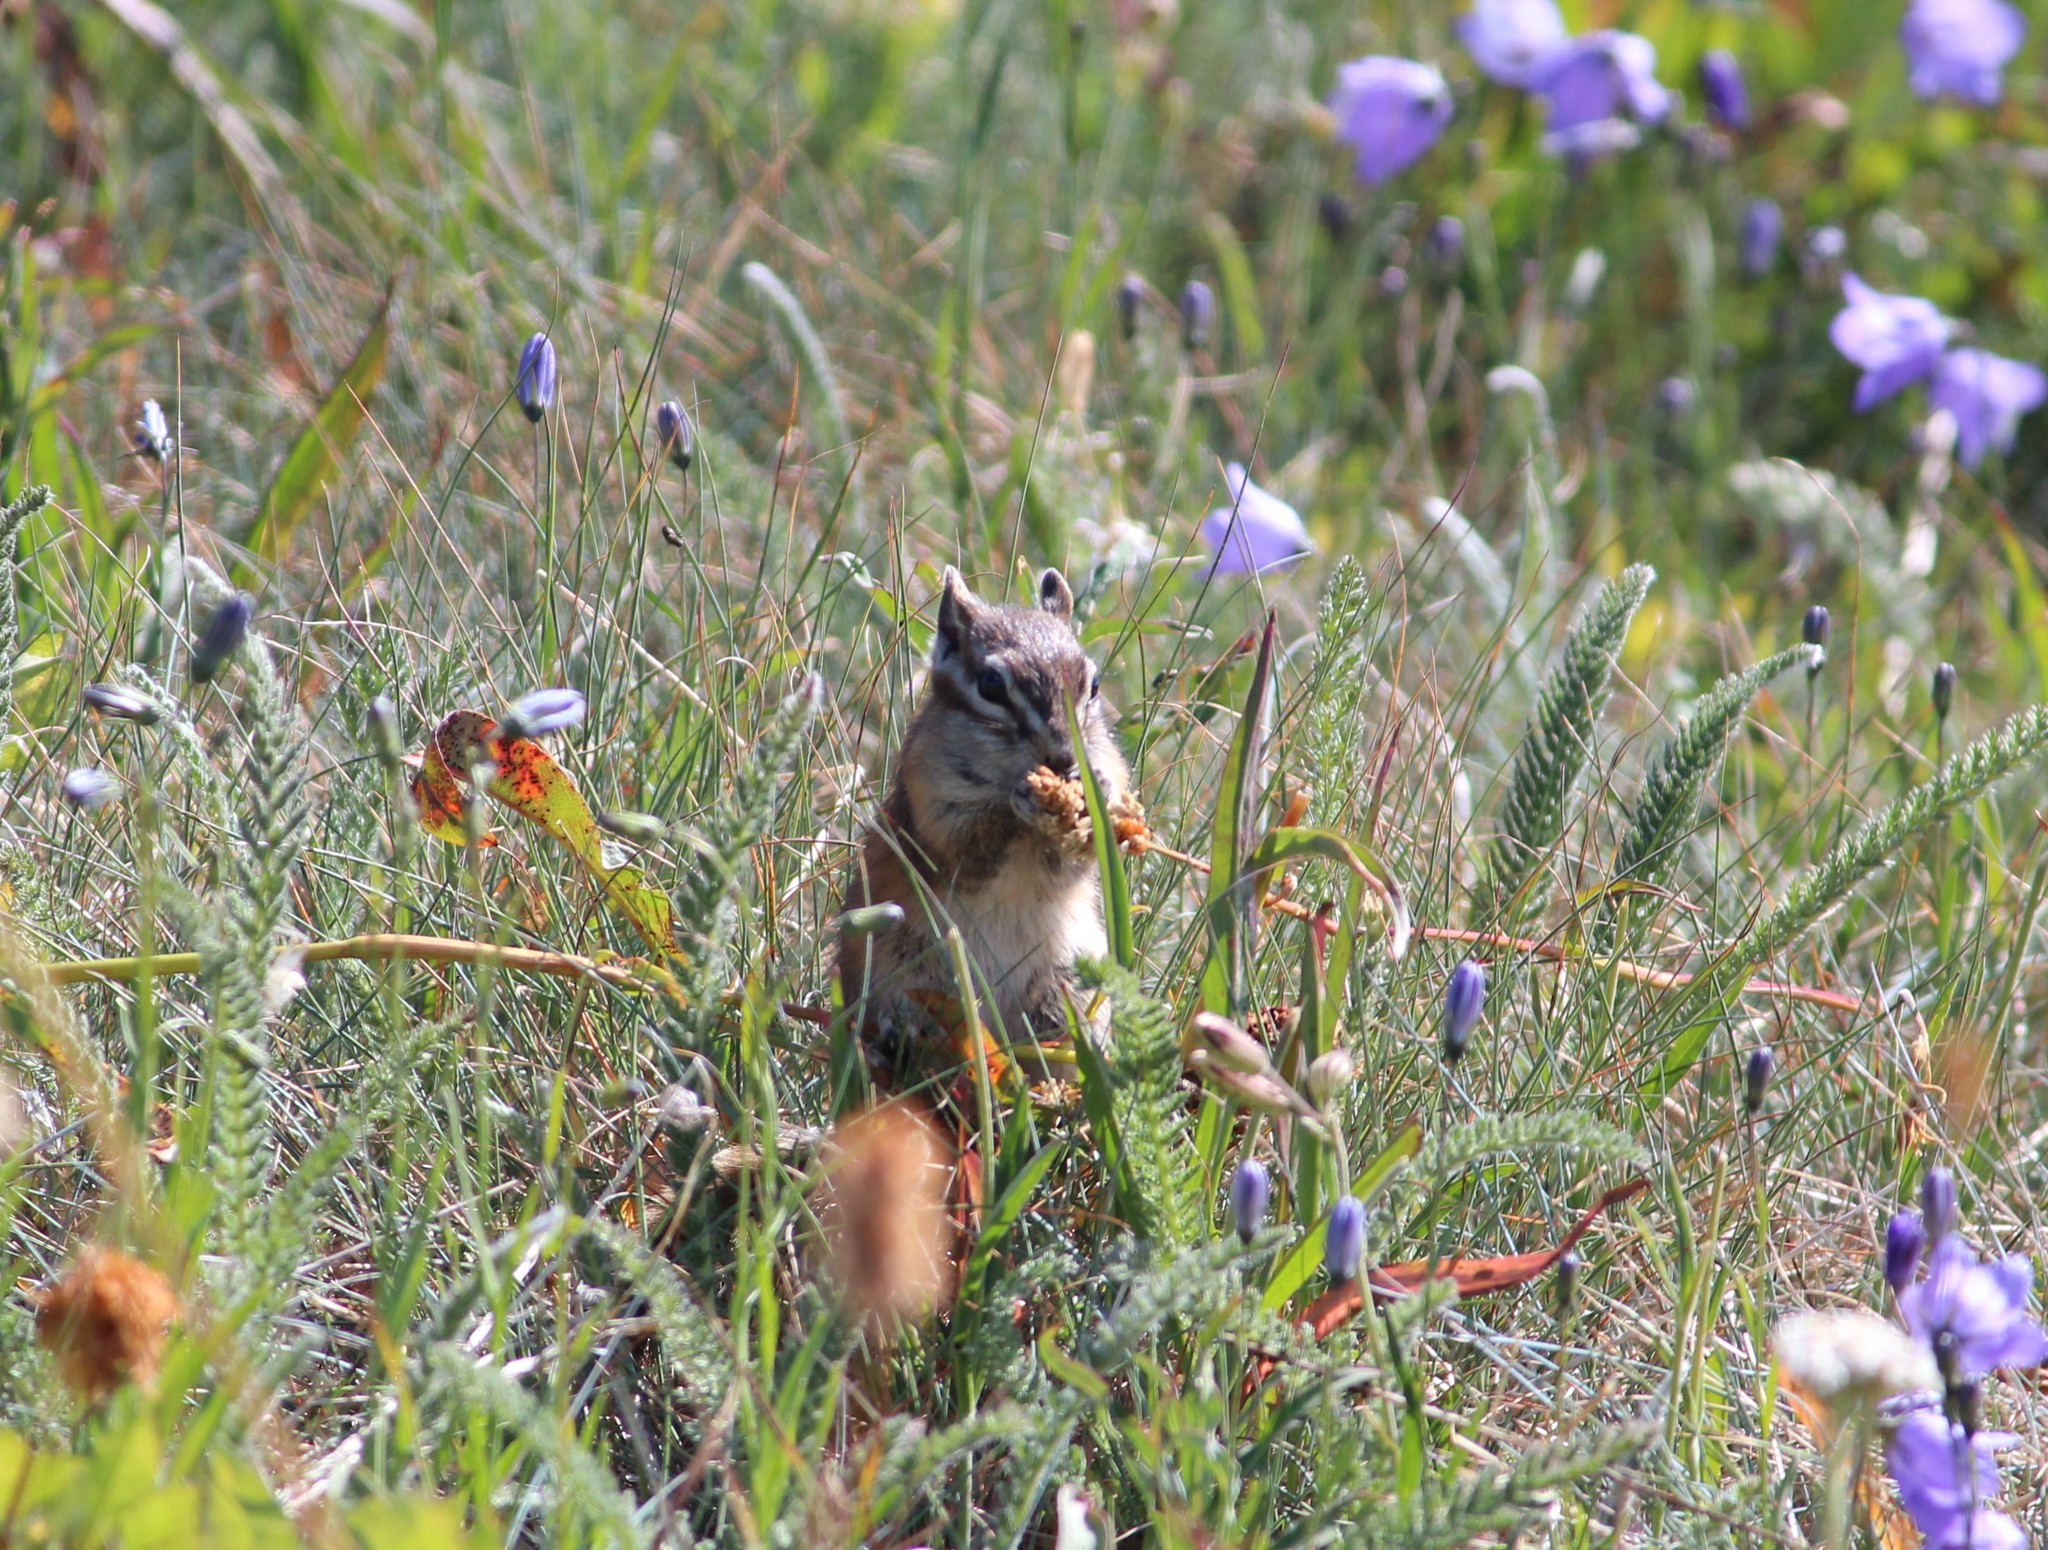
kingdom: Animalia
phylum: Chordata
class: Mammalia
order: Rodentia
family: Sciuridae
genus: Tamias
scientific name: Tamias amoenus
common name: Yellow-pine chipmunk
